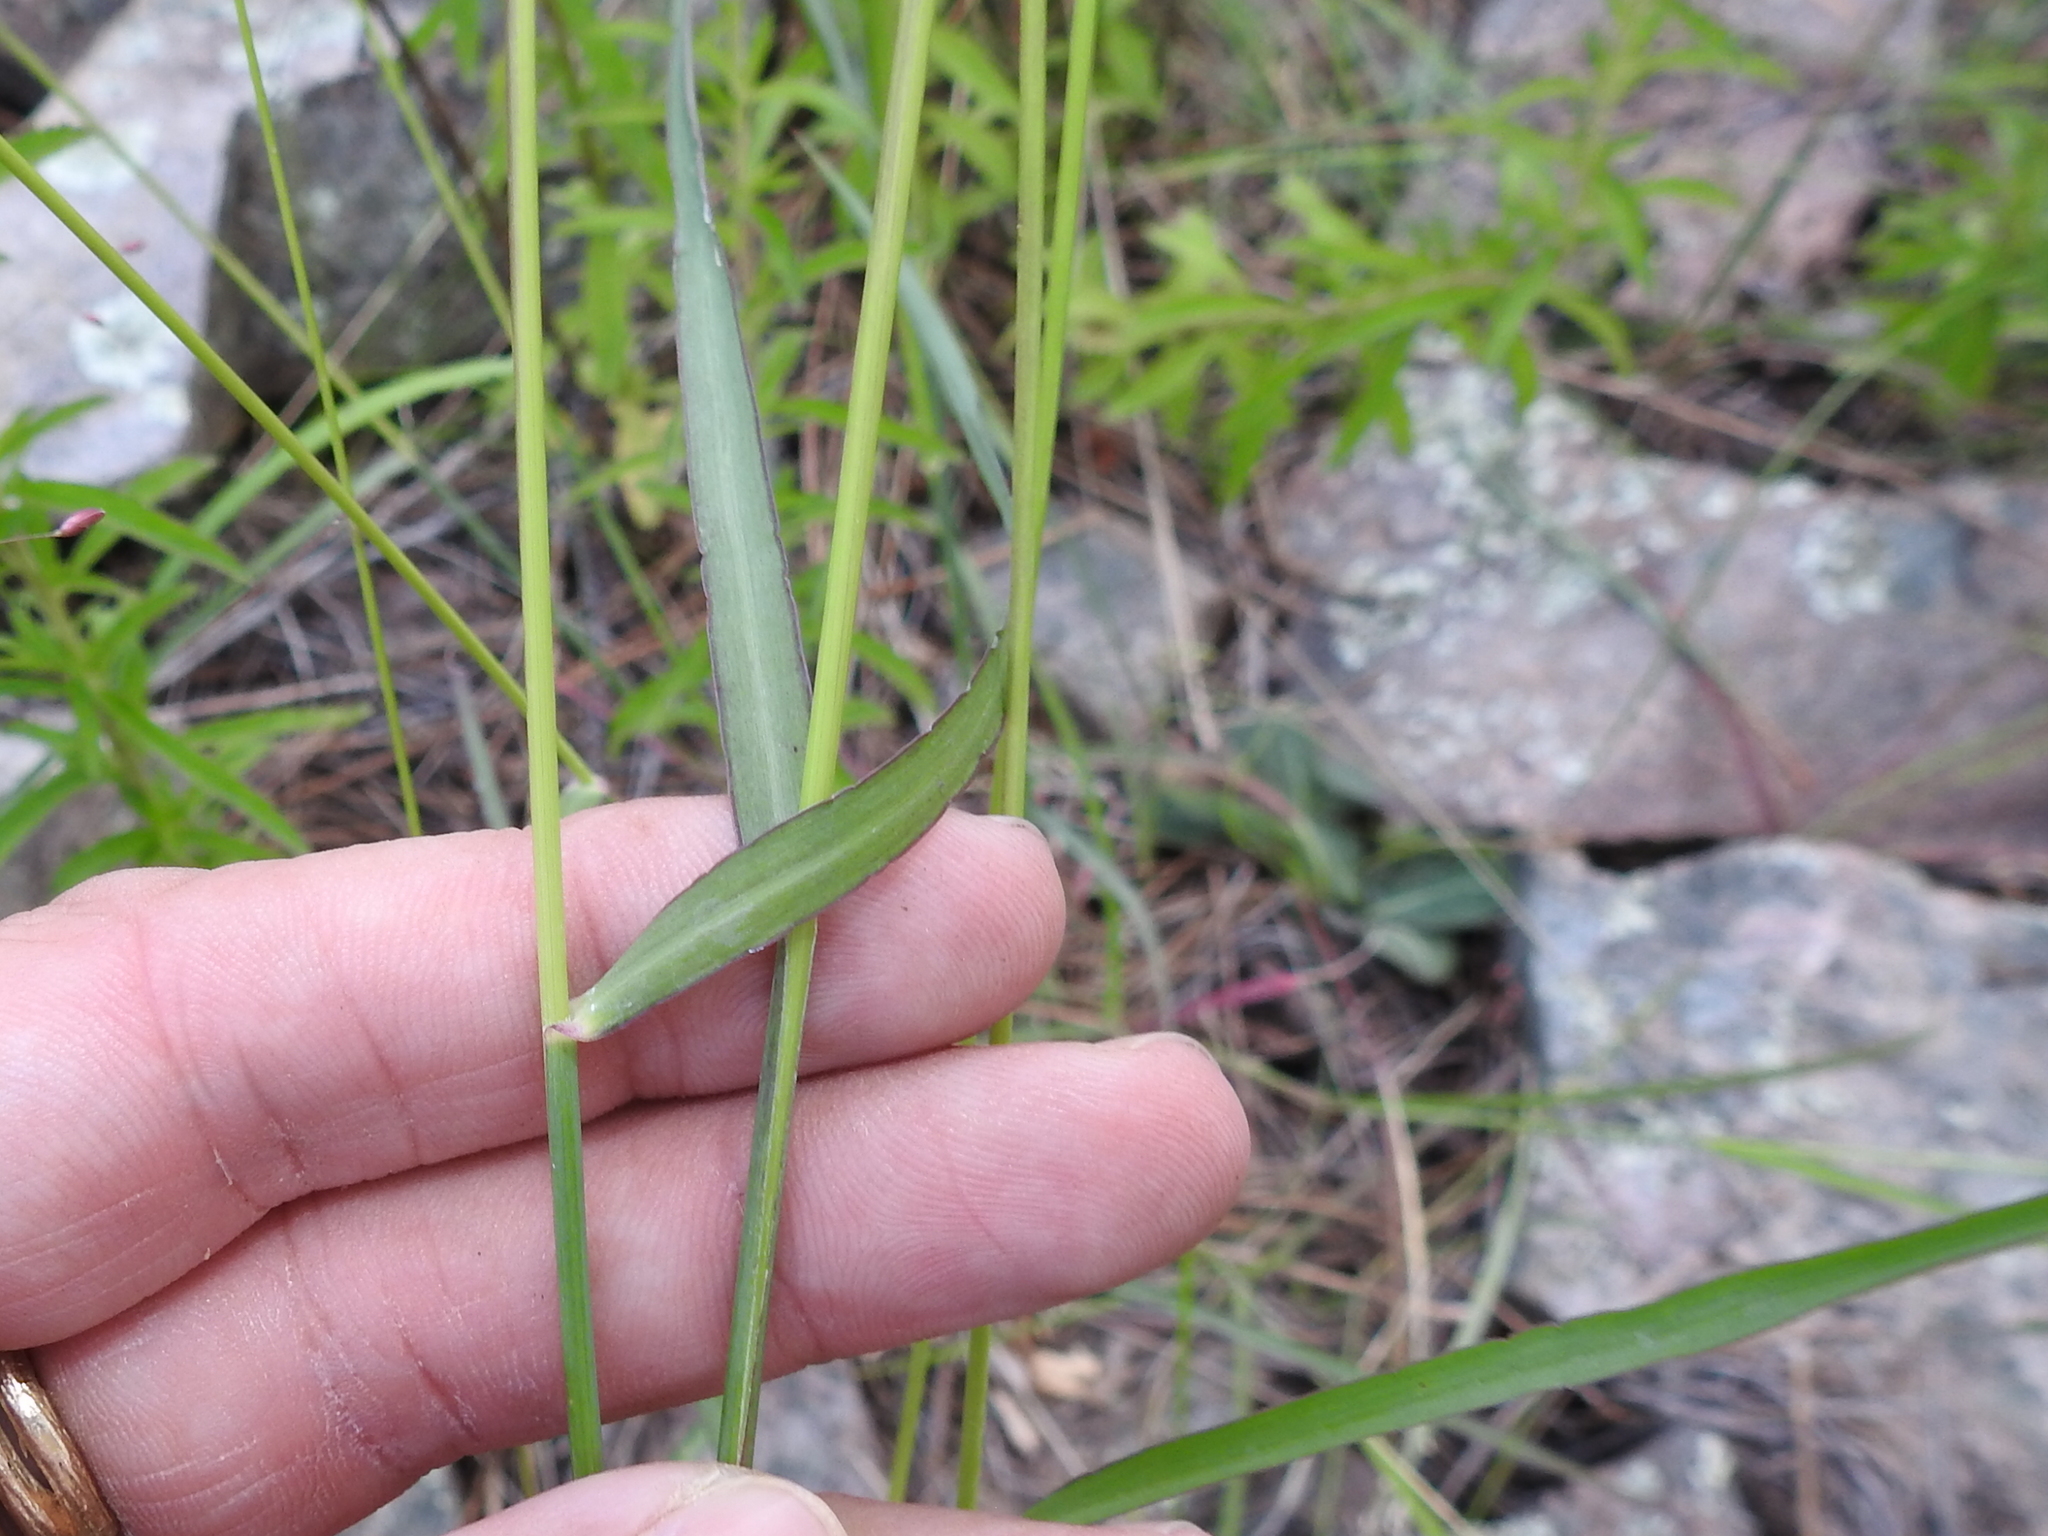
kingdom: Plantae
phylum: Tracheophyta
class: Liliopsida
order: Poales
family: Poaceae
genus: Zuloagaea
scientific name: Zuloagaea bulbosa
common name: Canyon panic grass
